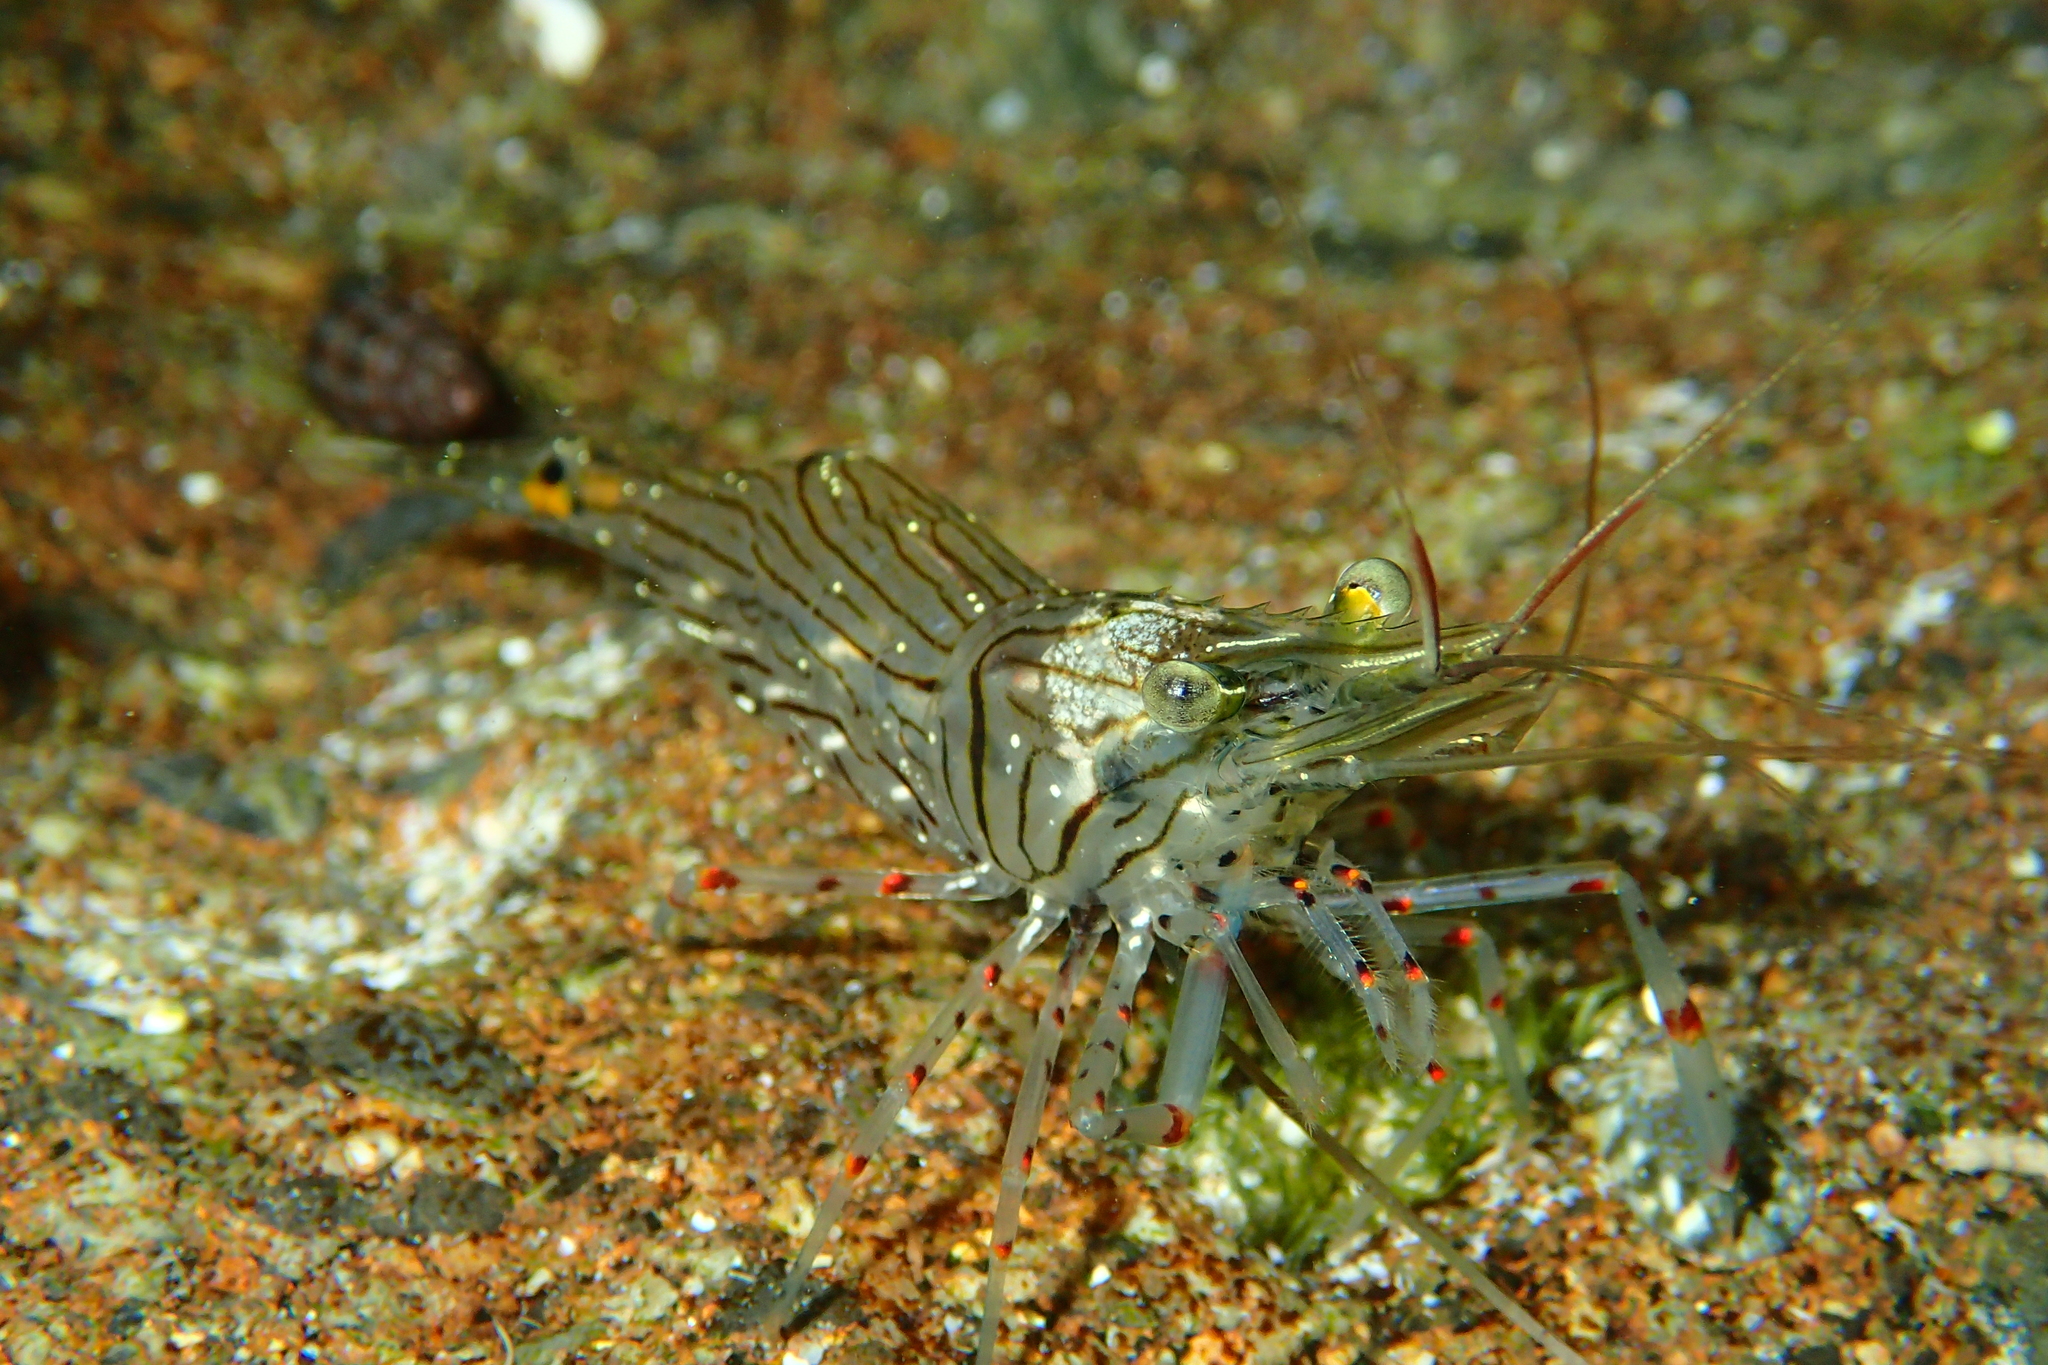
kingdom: Animalia
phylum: Arthropoda
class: Malacostraca
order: Decapoda
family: Palaemonidae
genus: Palaemon
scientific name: Palaemon affinis
